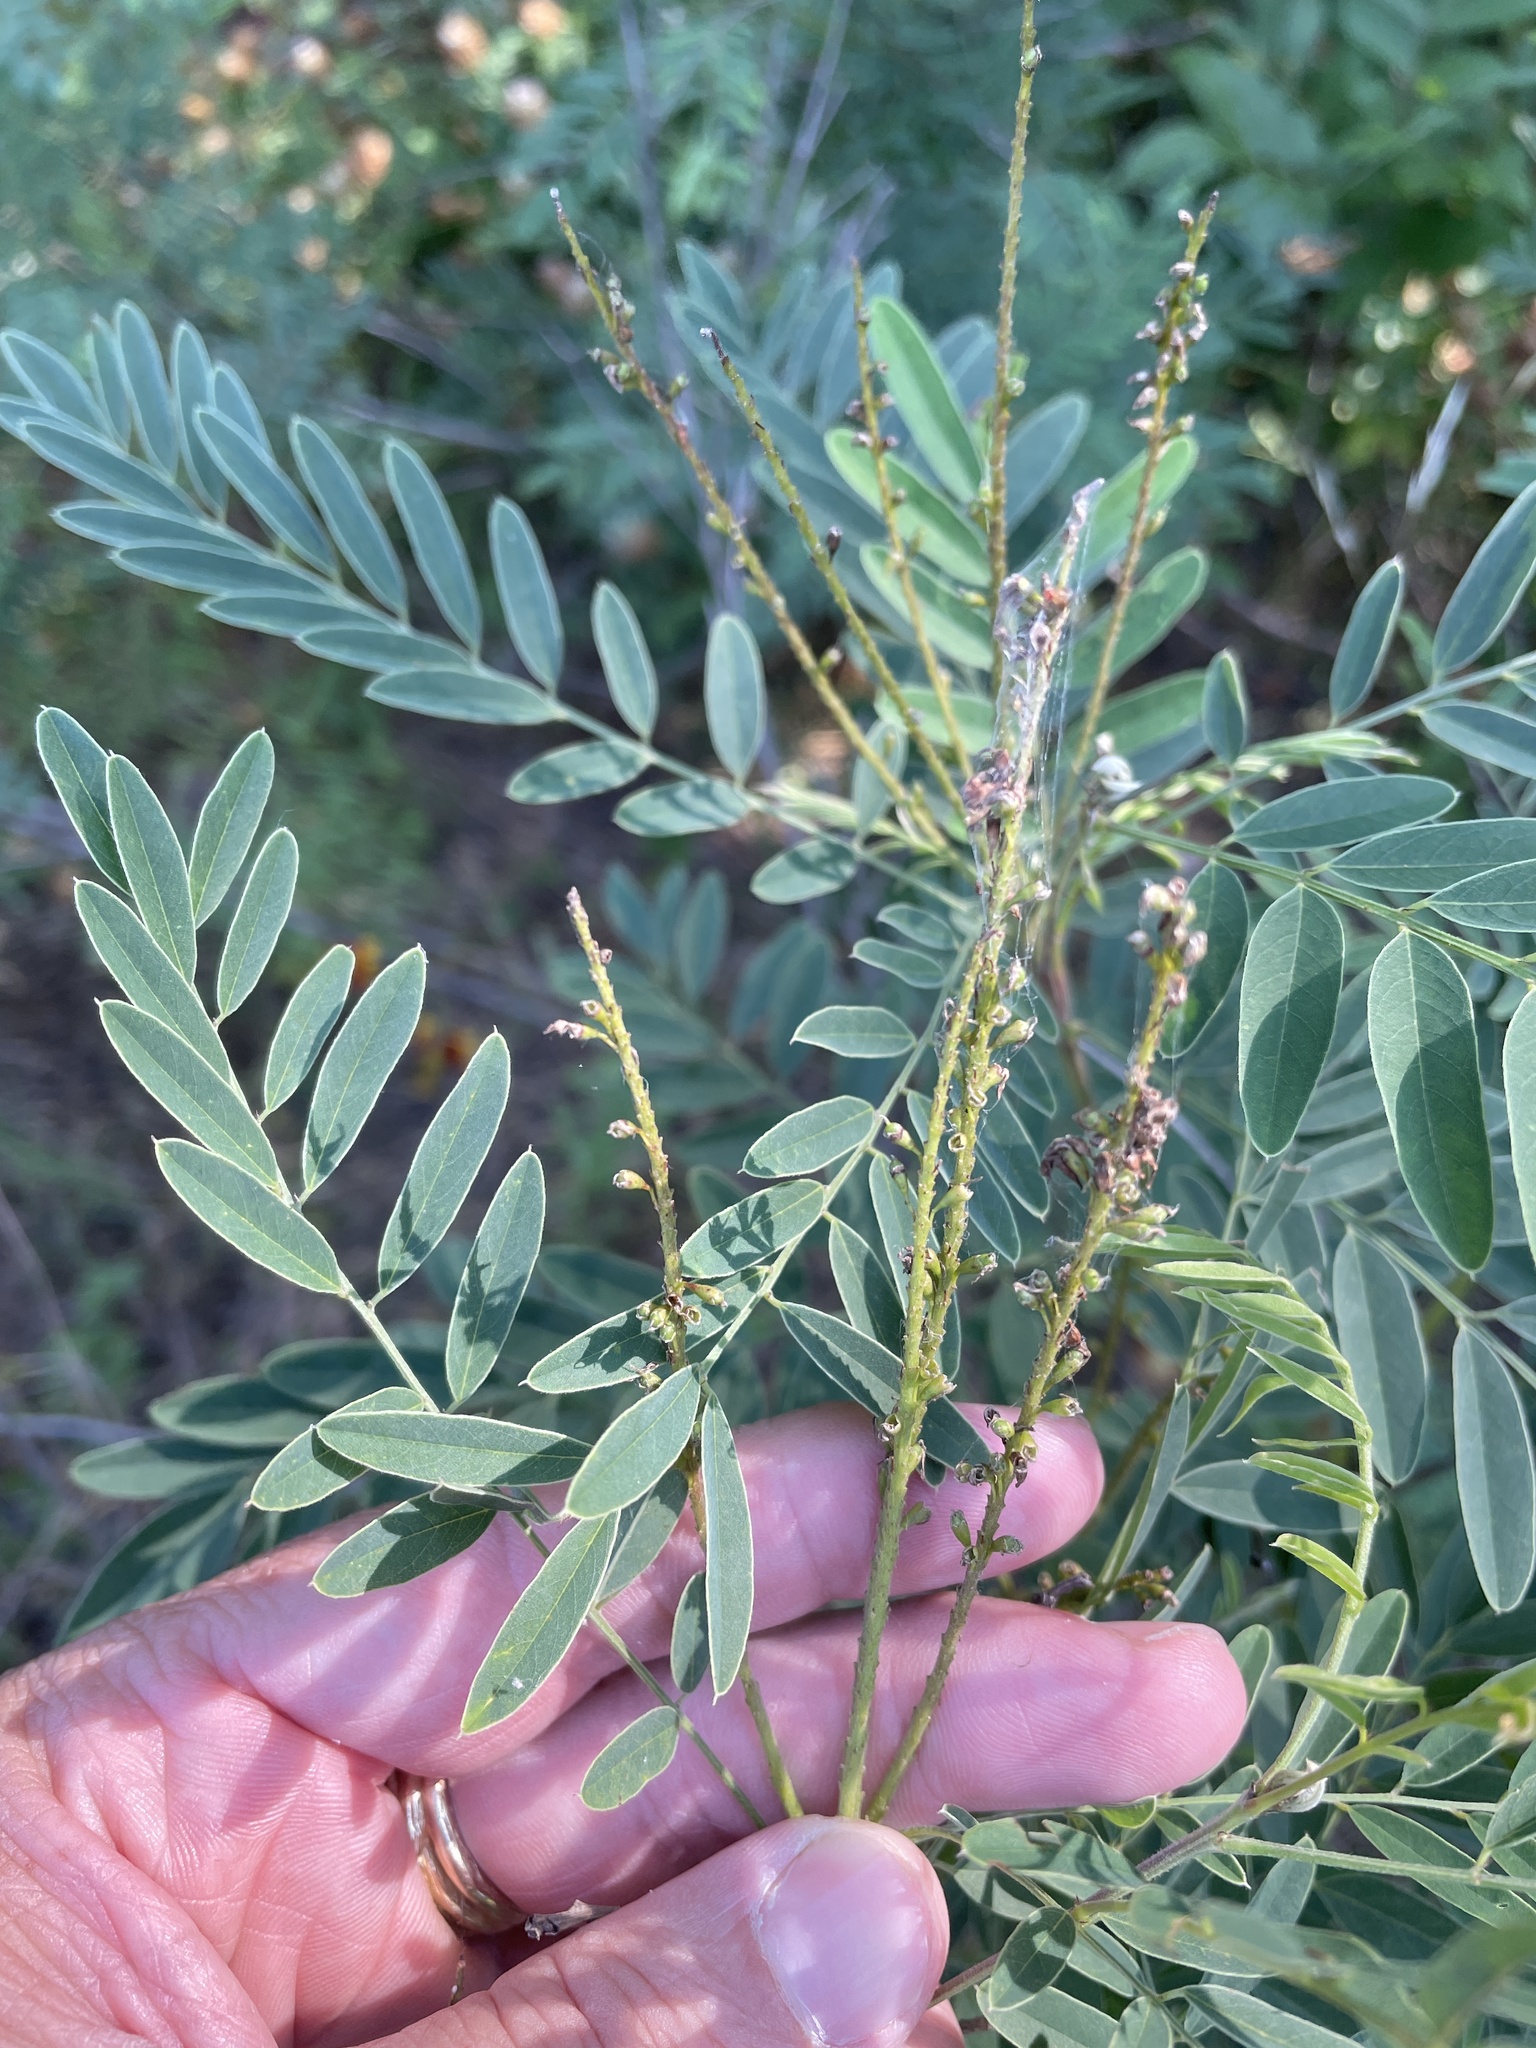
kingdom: Plantae
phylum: Tracheophyta
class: Magnoliopsida
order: Fabales
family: Fabaceae
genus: Amorpha
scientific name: Amorpha fruticosa
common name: False indigo
